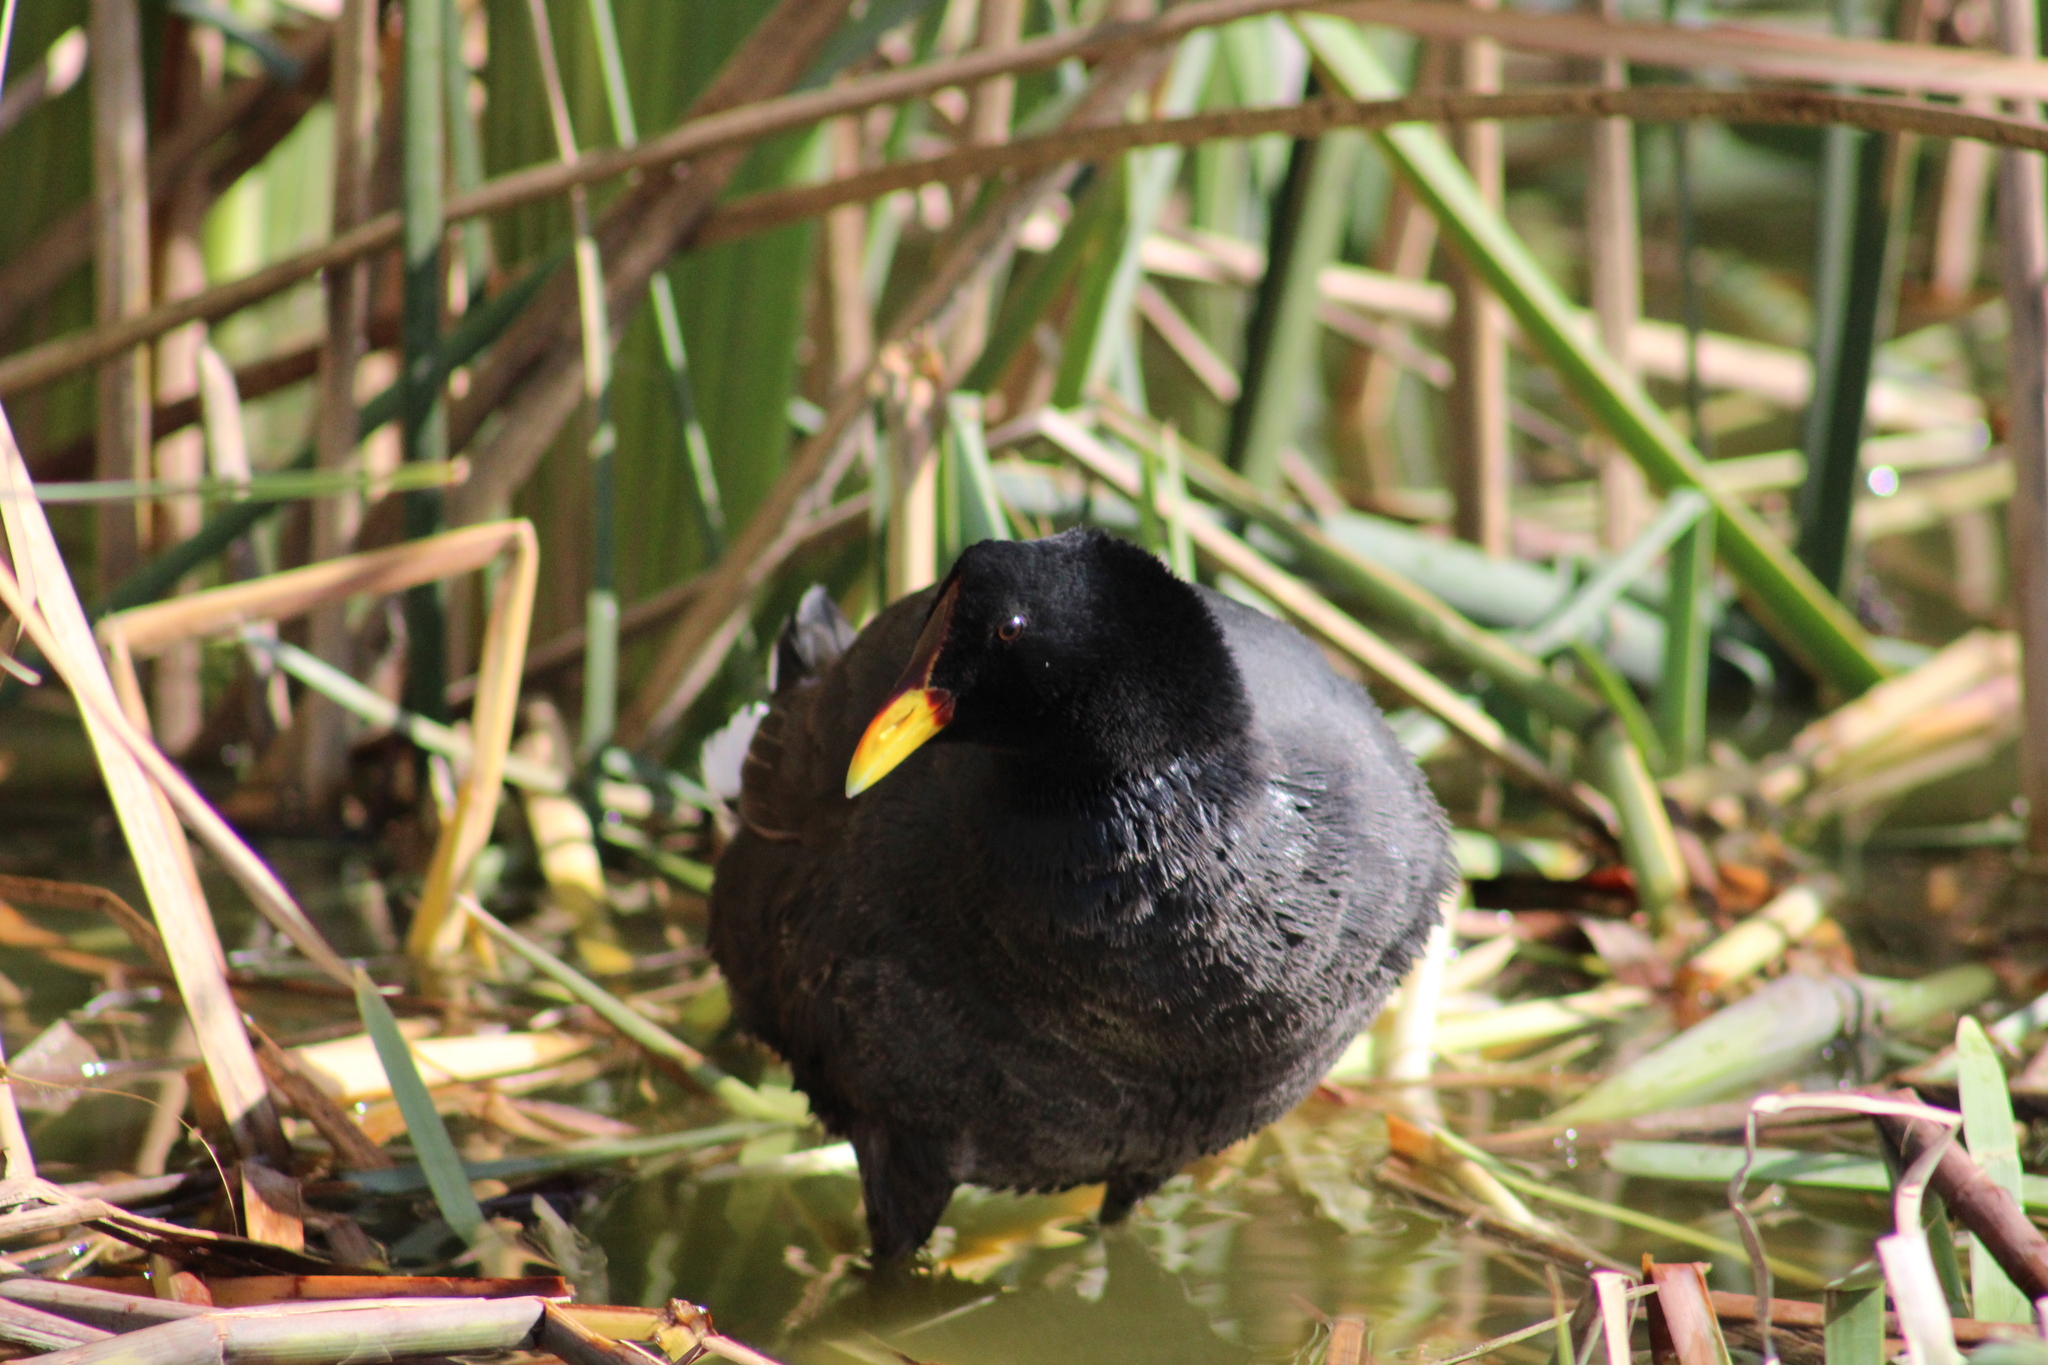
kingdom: Animalia
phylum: Chordata
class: Aves
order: Gruiformes
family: Rallidae
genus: Fulica
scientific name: Fulica rufifrons
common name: Red-fronted coot
